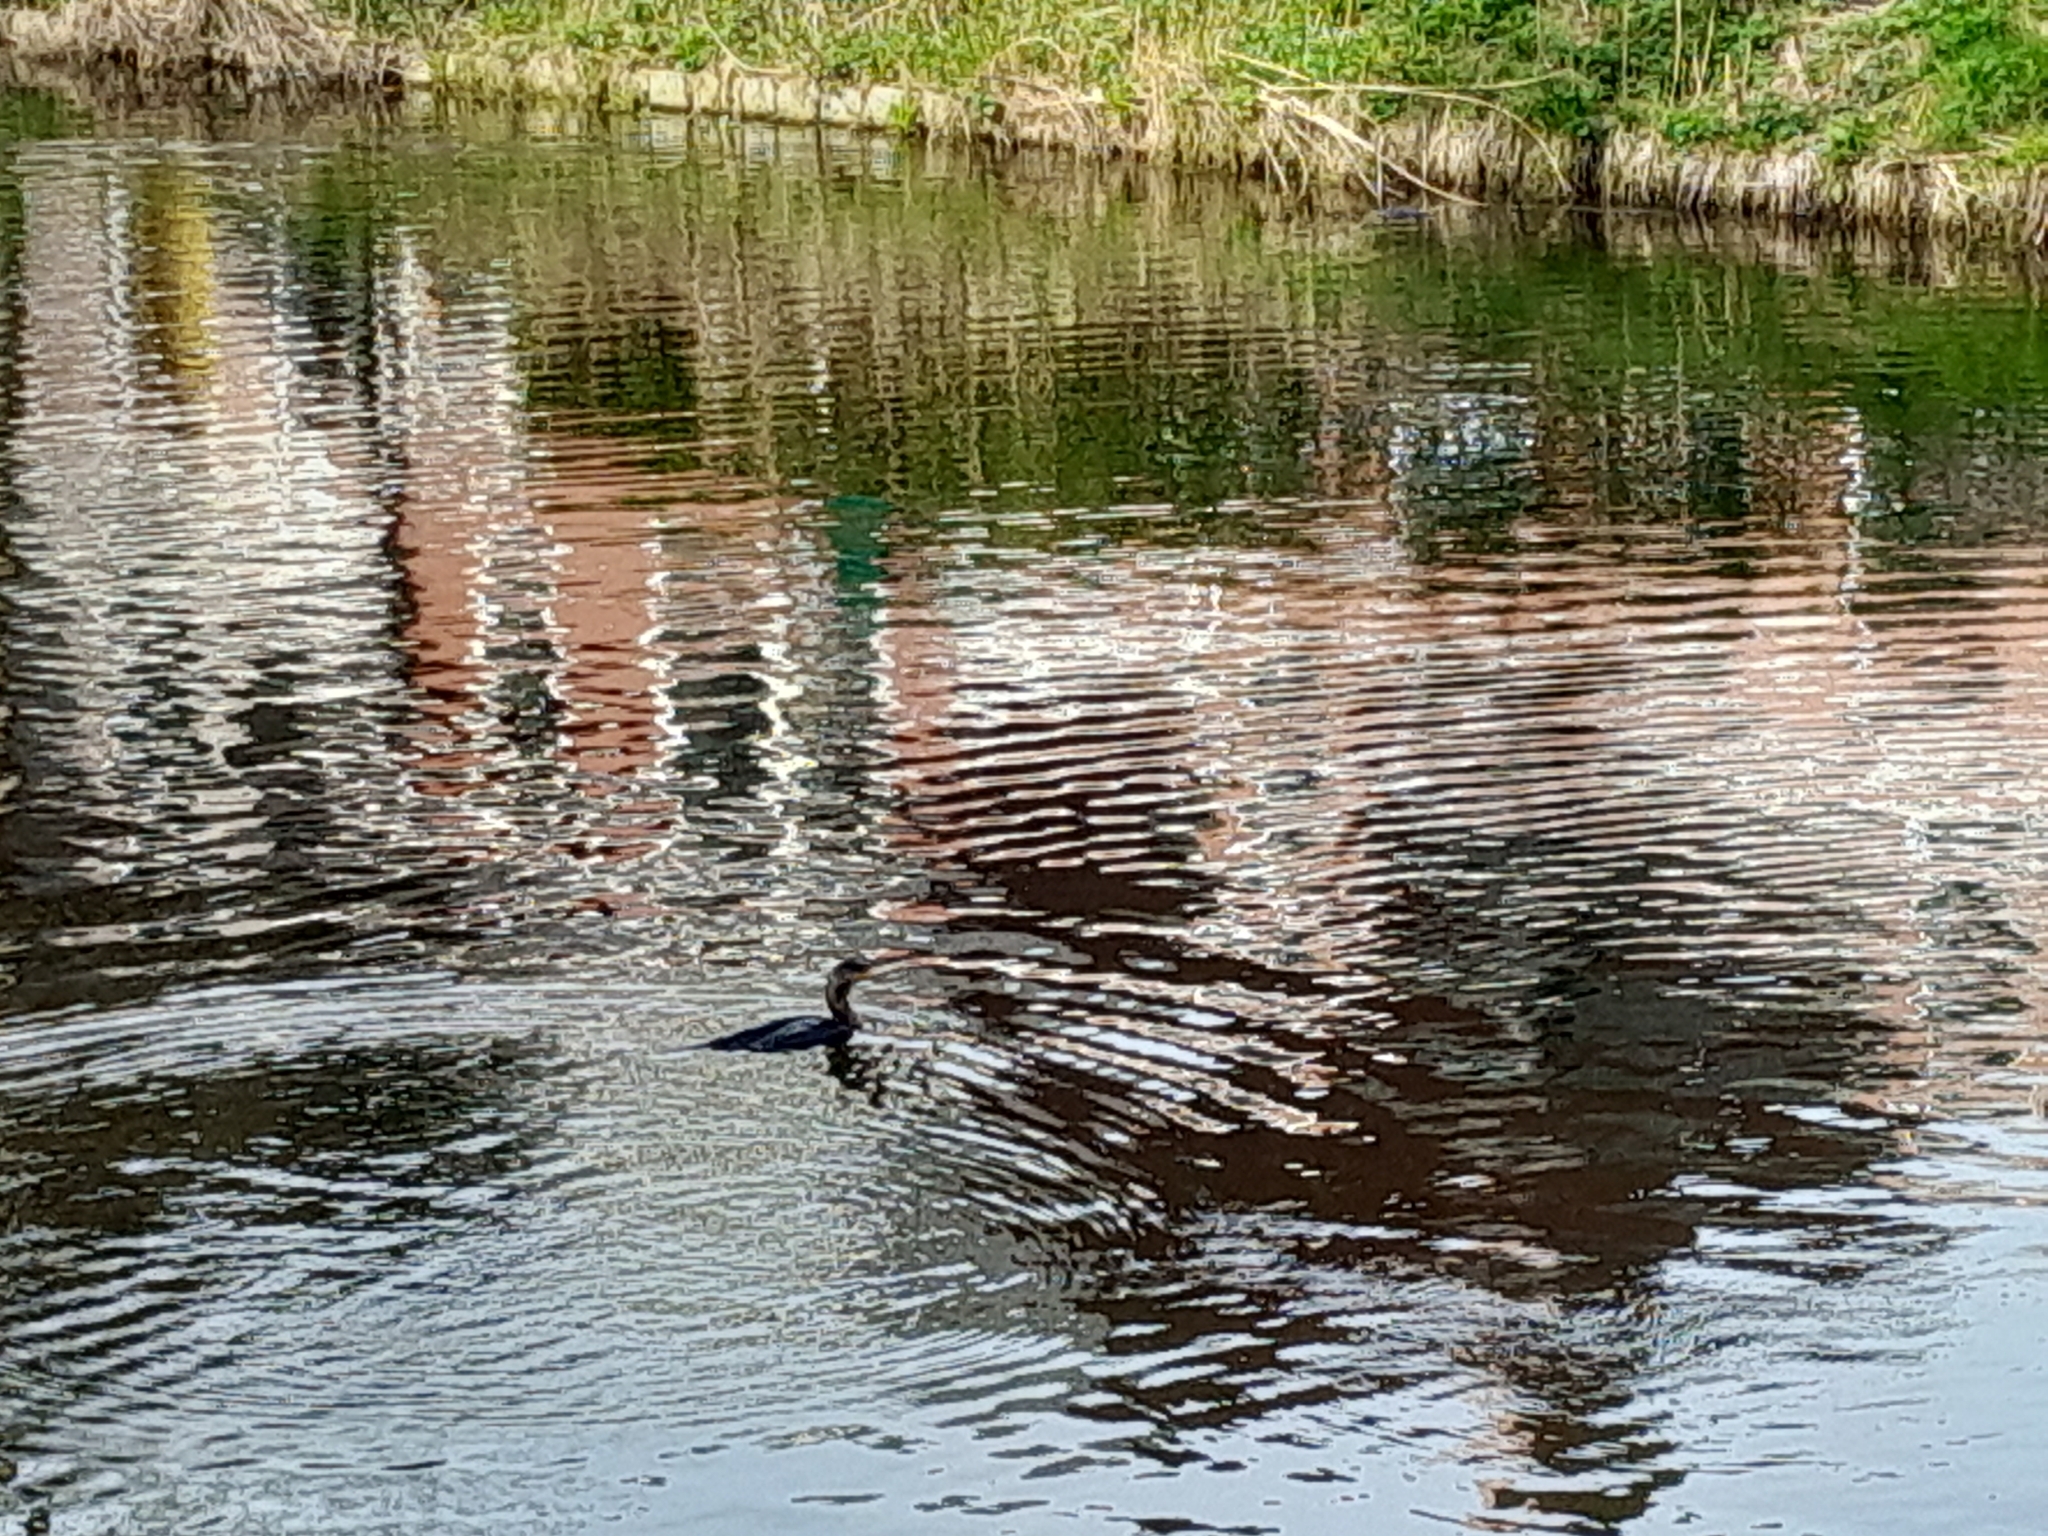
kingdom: Animalia
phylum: Chordata
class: Aves
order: Suliformes
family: Phalacrocoracidae
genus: Phalacrocorax
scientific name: Phalacrocorax carbo
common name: Great cormorant
